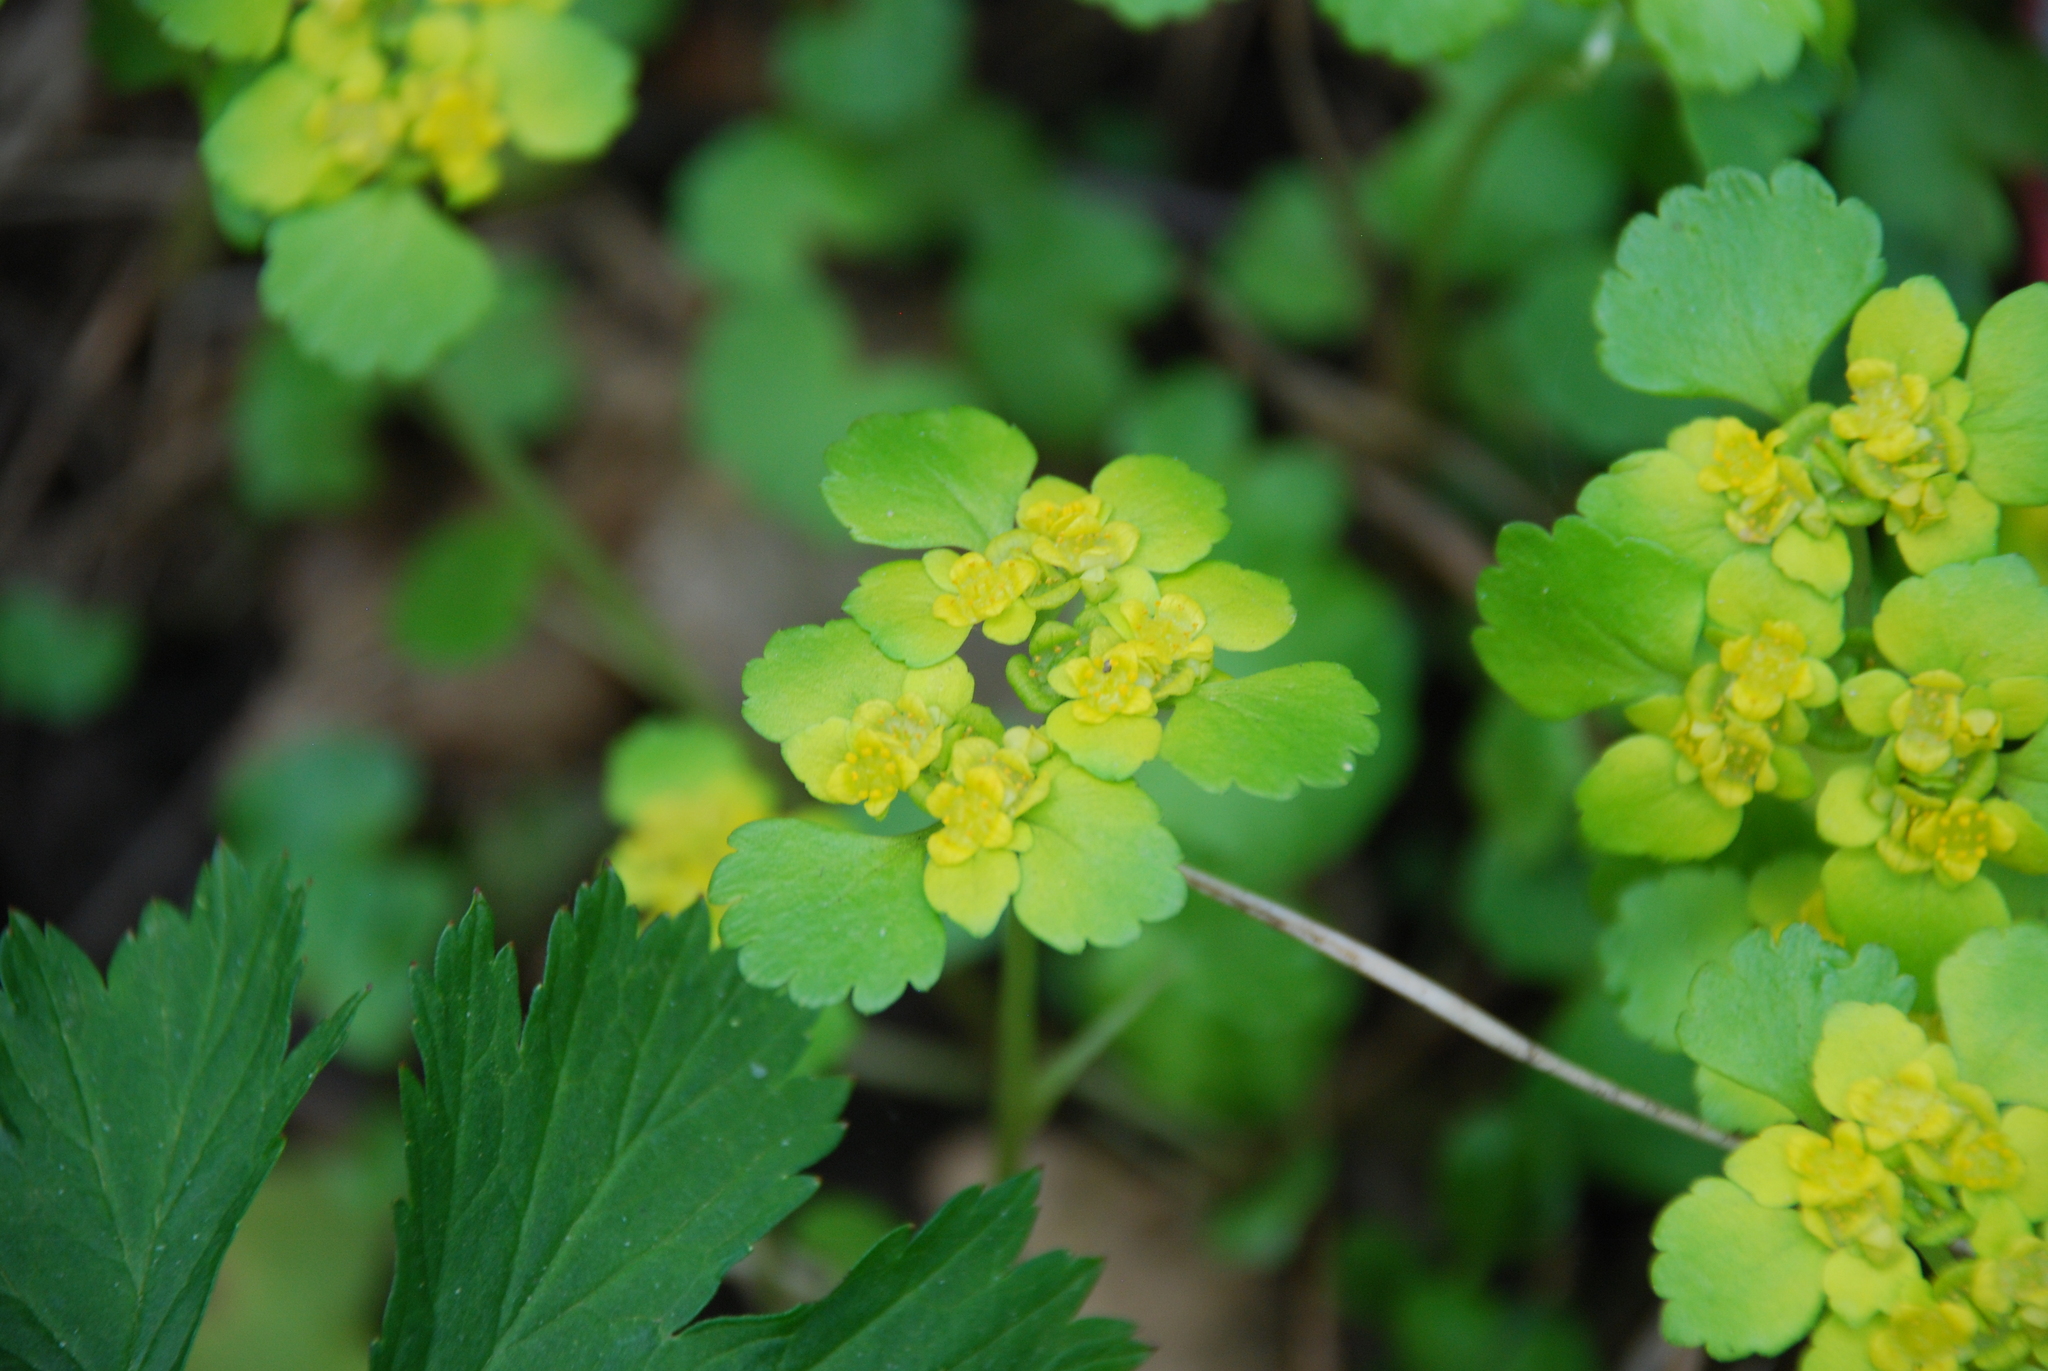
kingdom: Plantae
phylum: Tracheophyta
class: Magnoliopsida
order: Saxifragales
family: Saxifragaceae
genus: Chrysosplenium
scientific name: Chrysosplenium alternifolium
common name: Alternate-leaved golden-saxifrage
